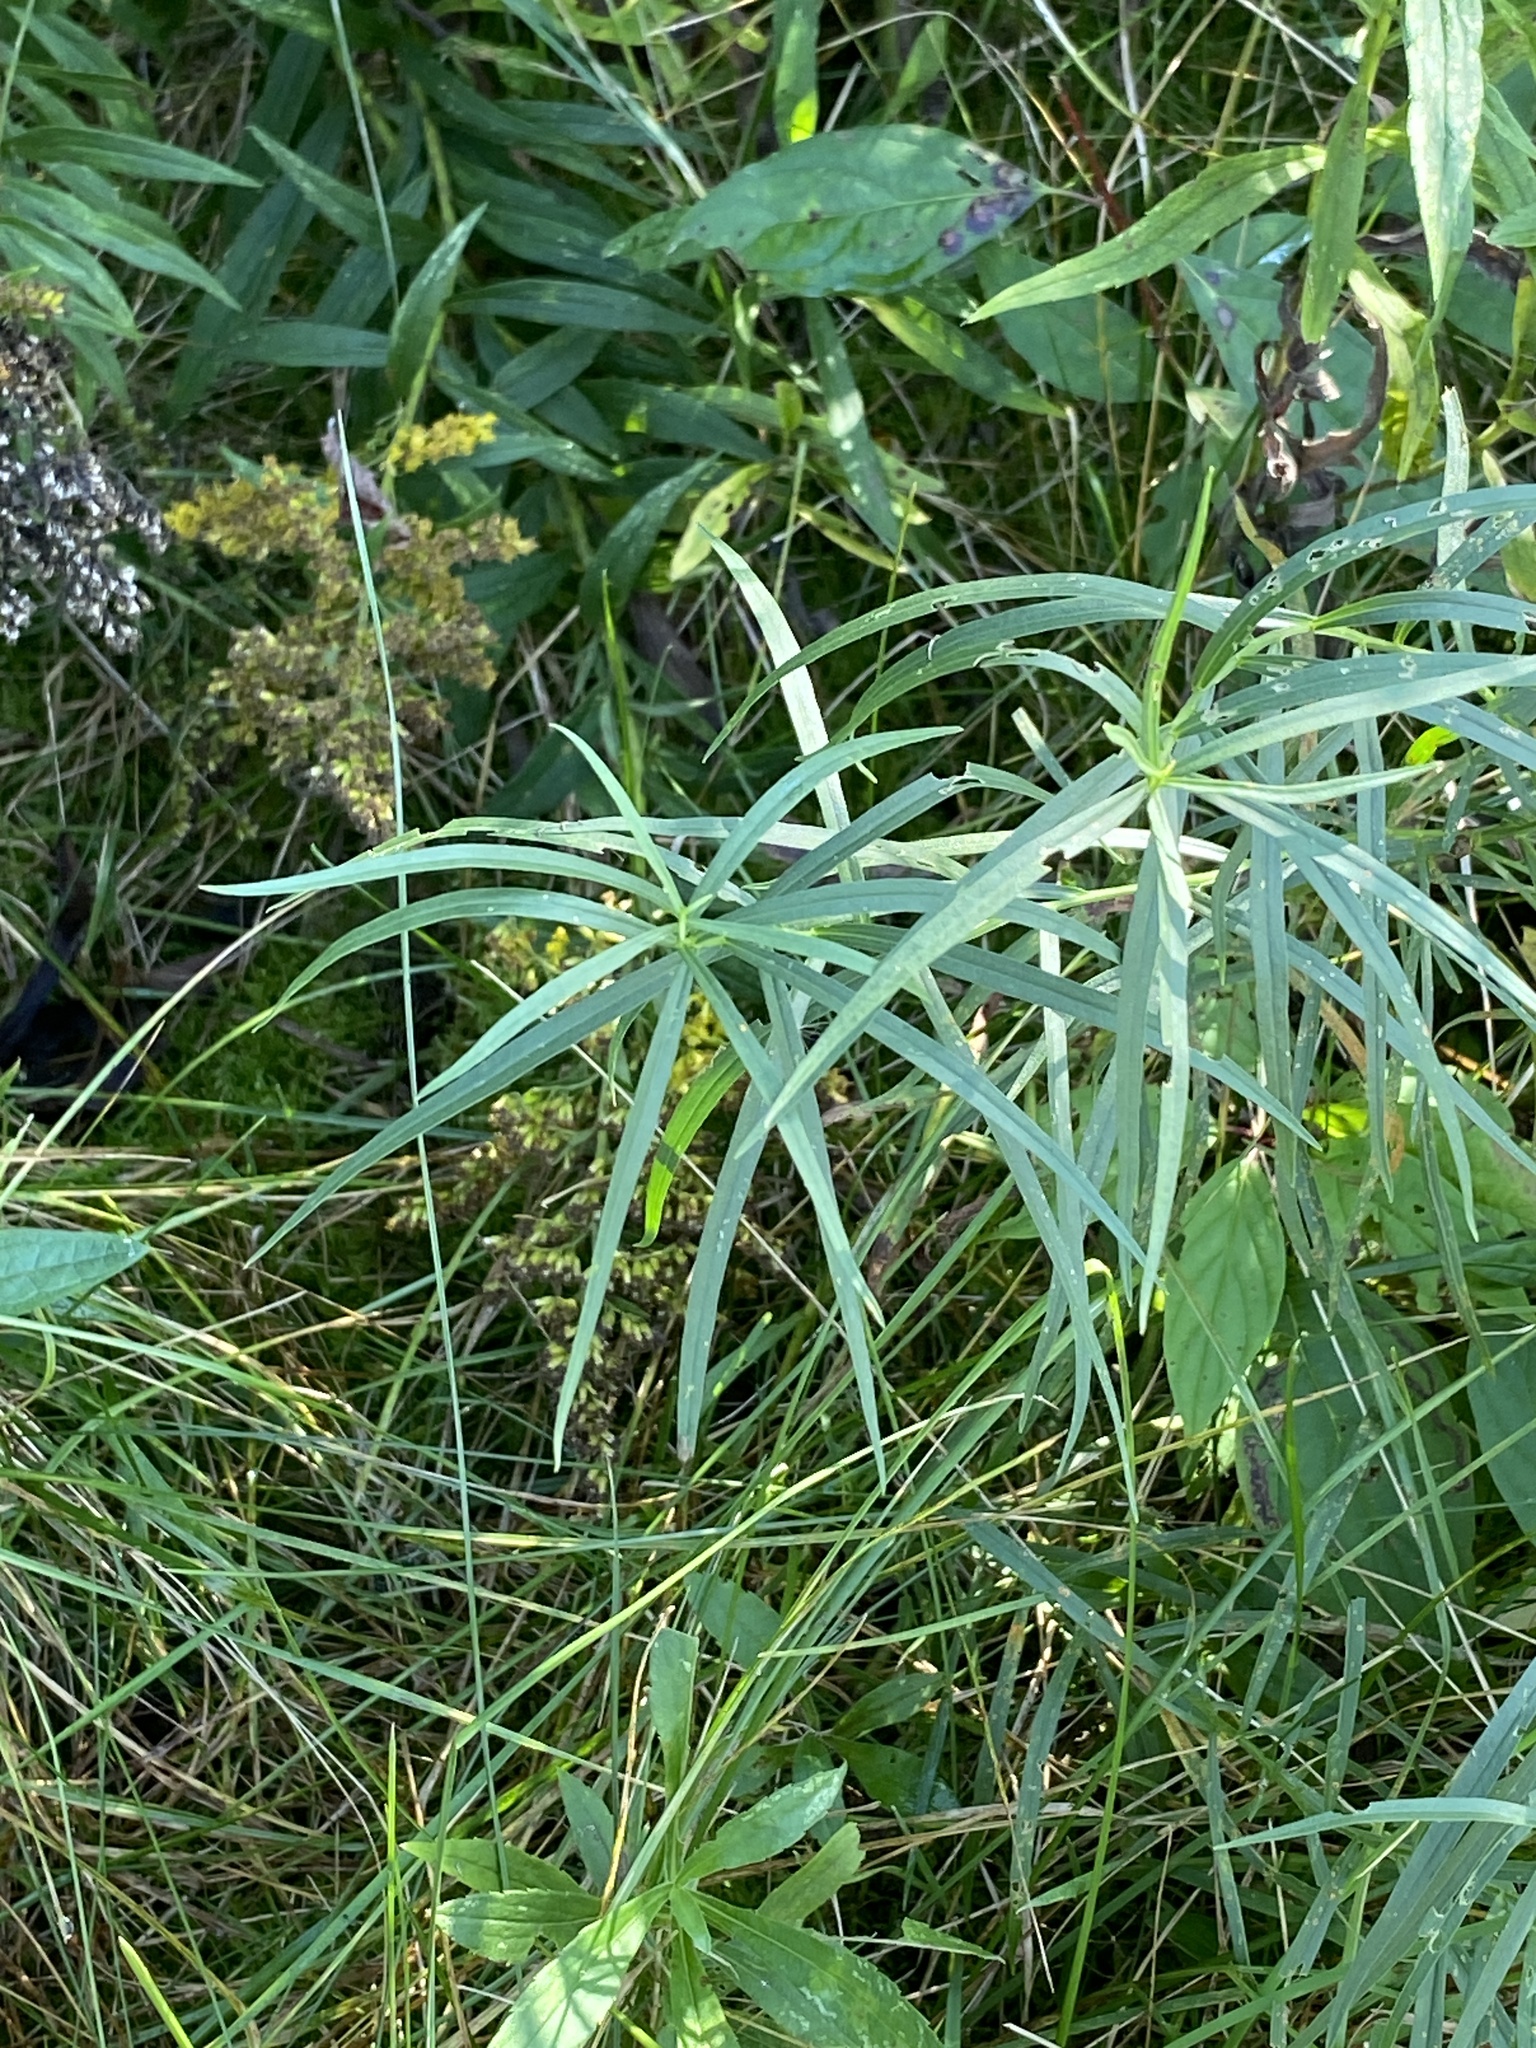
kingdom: Plantae
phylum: Tracheophyta
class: Magnoliopsida
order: Asterales
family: Asteraceae
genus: Euthamia
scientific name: Euthamia graminifolia
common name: Common goldentop
